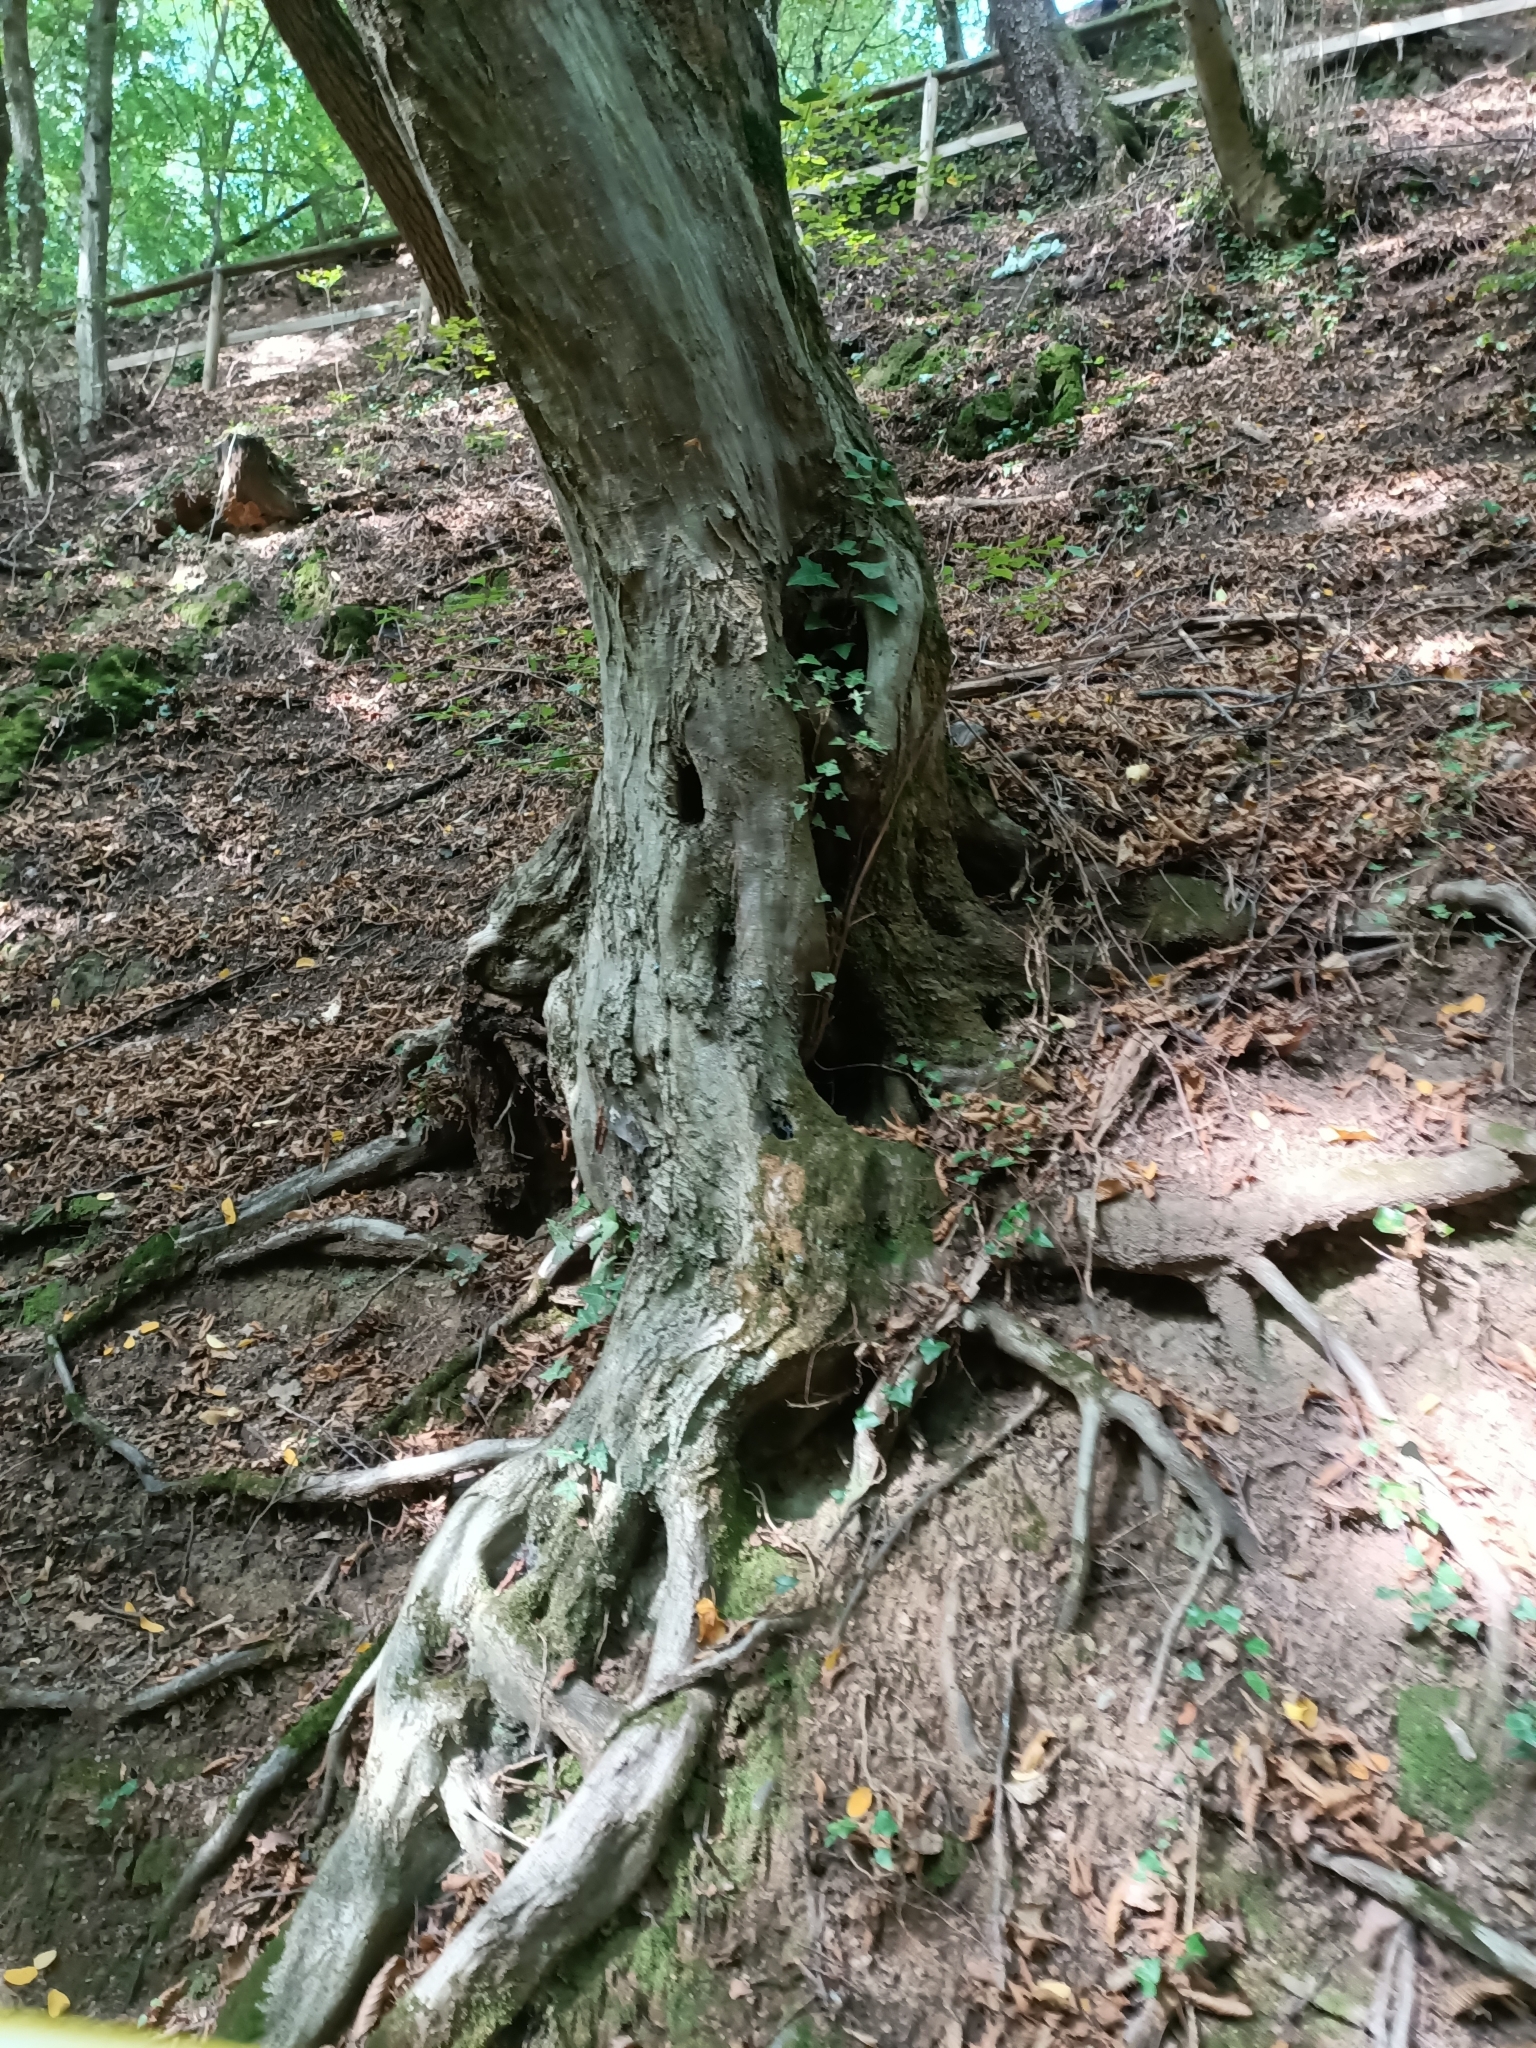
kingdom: Plantae
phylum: Tracheophyta
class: Magnoliopsida
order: Fagales
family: Betulaceae
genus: Carpinus
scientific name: Carpinus betulus
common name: Hornbeam
